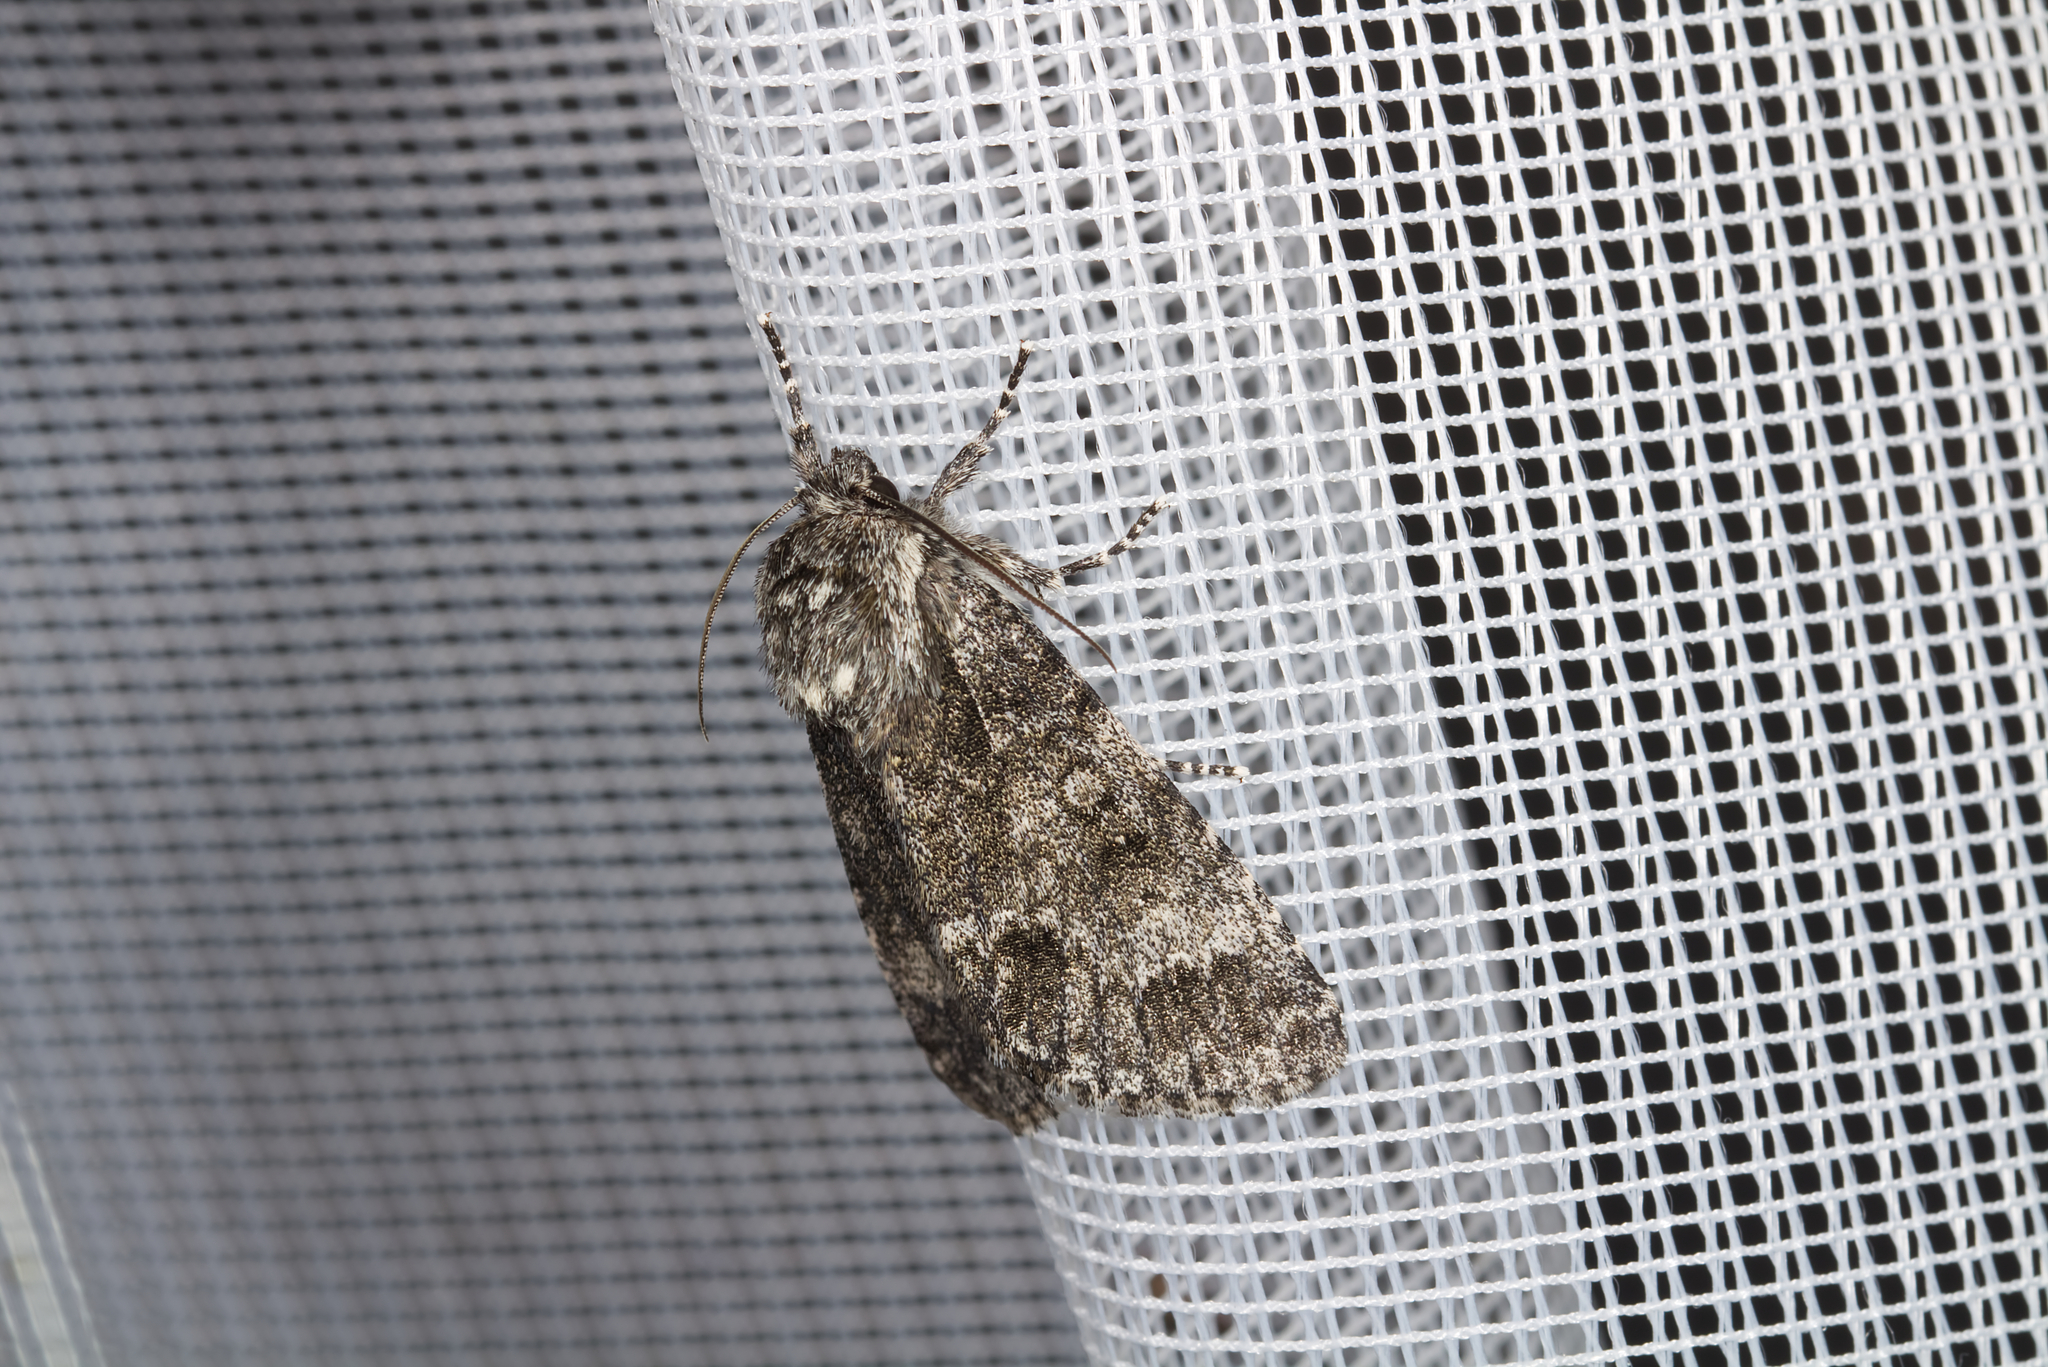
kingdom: Animalia
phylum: Arthropoda
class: Insecta
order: Lepidoptera
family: Noctuidae
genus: Acronicta
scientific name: Acronicta rumicis
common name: Knot grass
